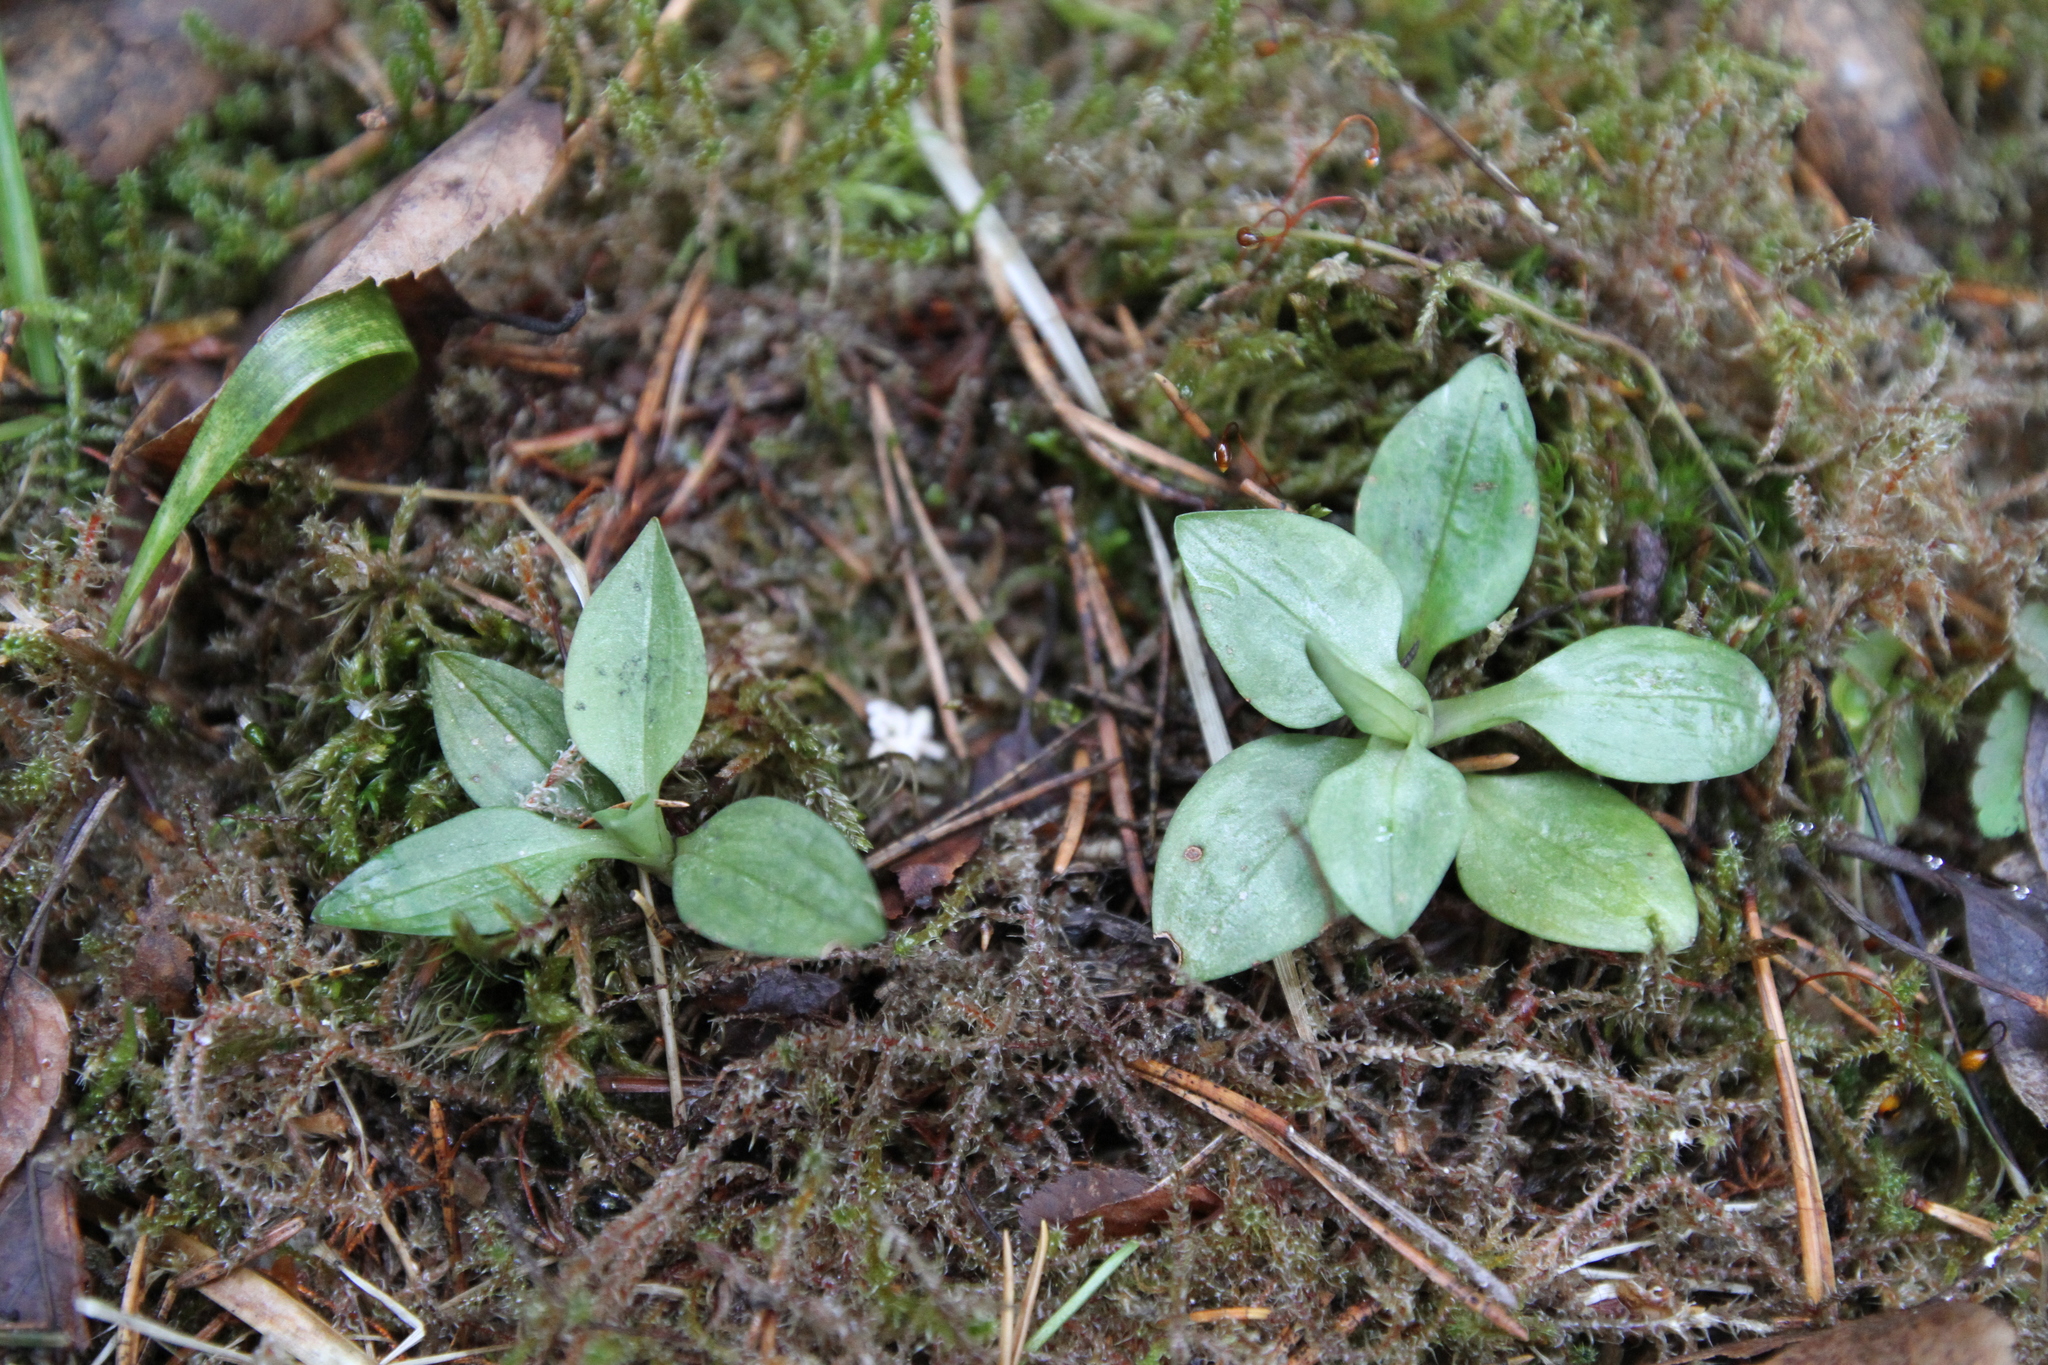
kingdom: Plantae
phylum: Tracheophyta
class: Liliopsida
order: Asparagales
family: Orchidaceae
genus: Goodyera
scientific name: Goodyera repens
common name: Creeping lady's-tresses
